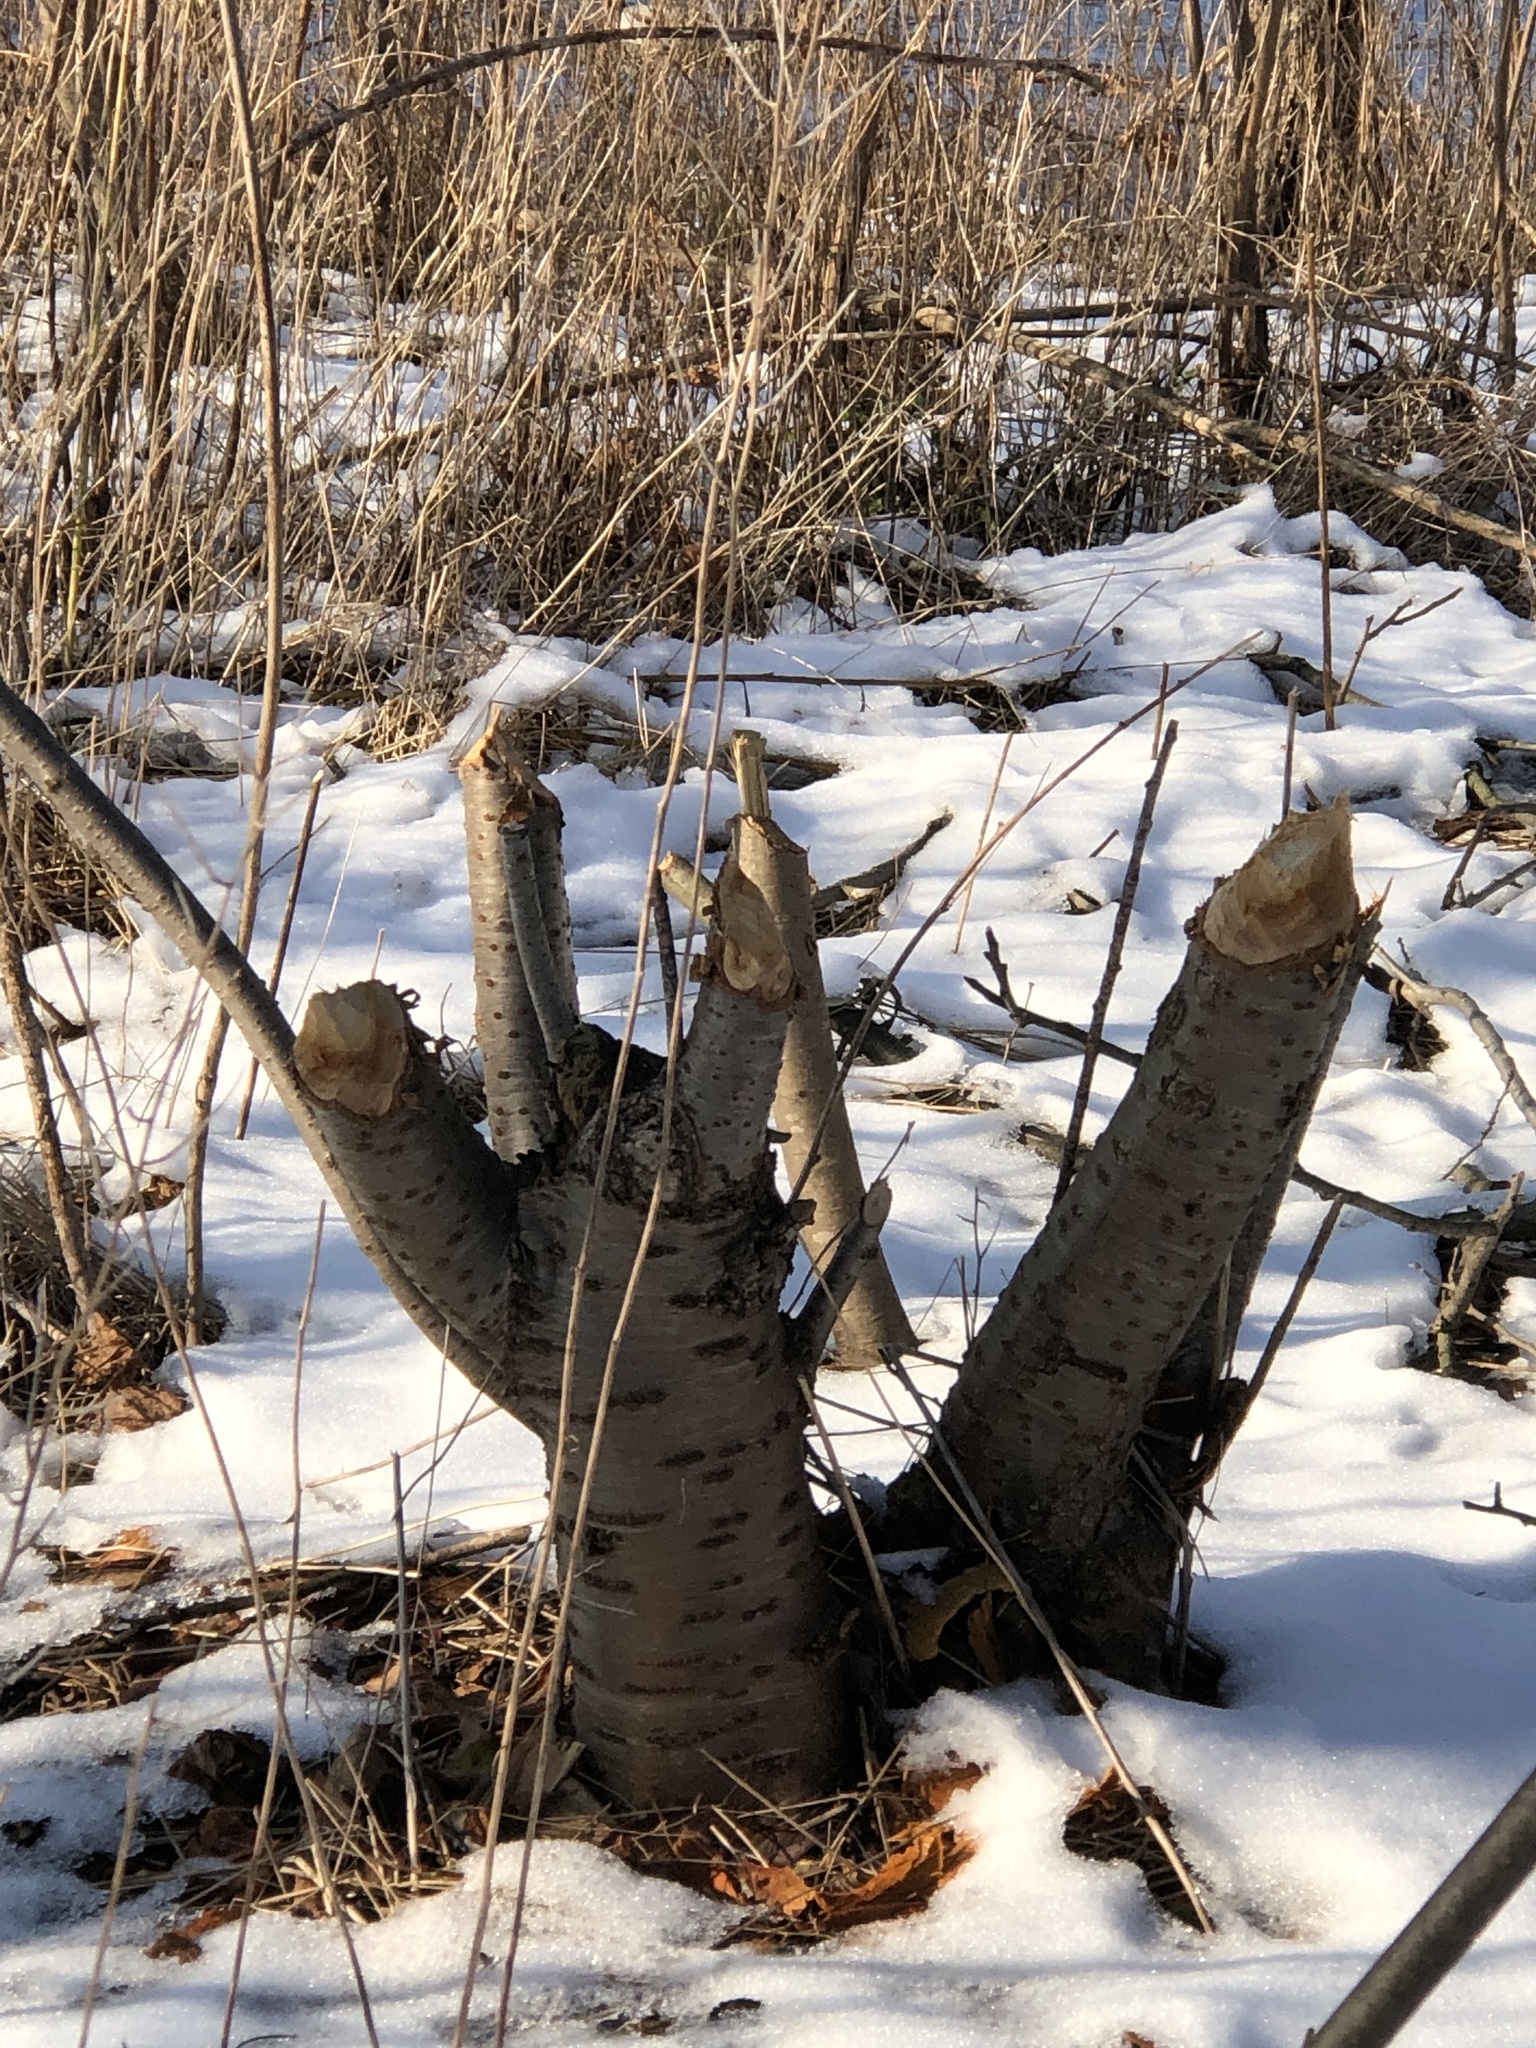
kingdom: Animalia
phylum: Chordata
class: Mammalia
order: Rodentia
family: Castoridae
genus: Castor
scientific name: Castor canadensis
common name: American beaver
